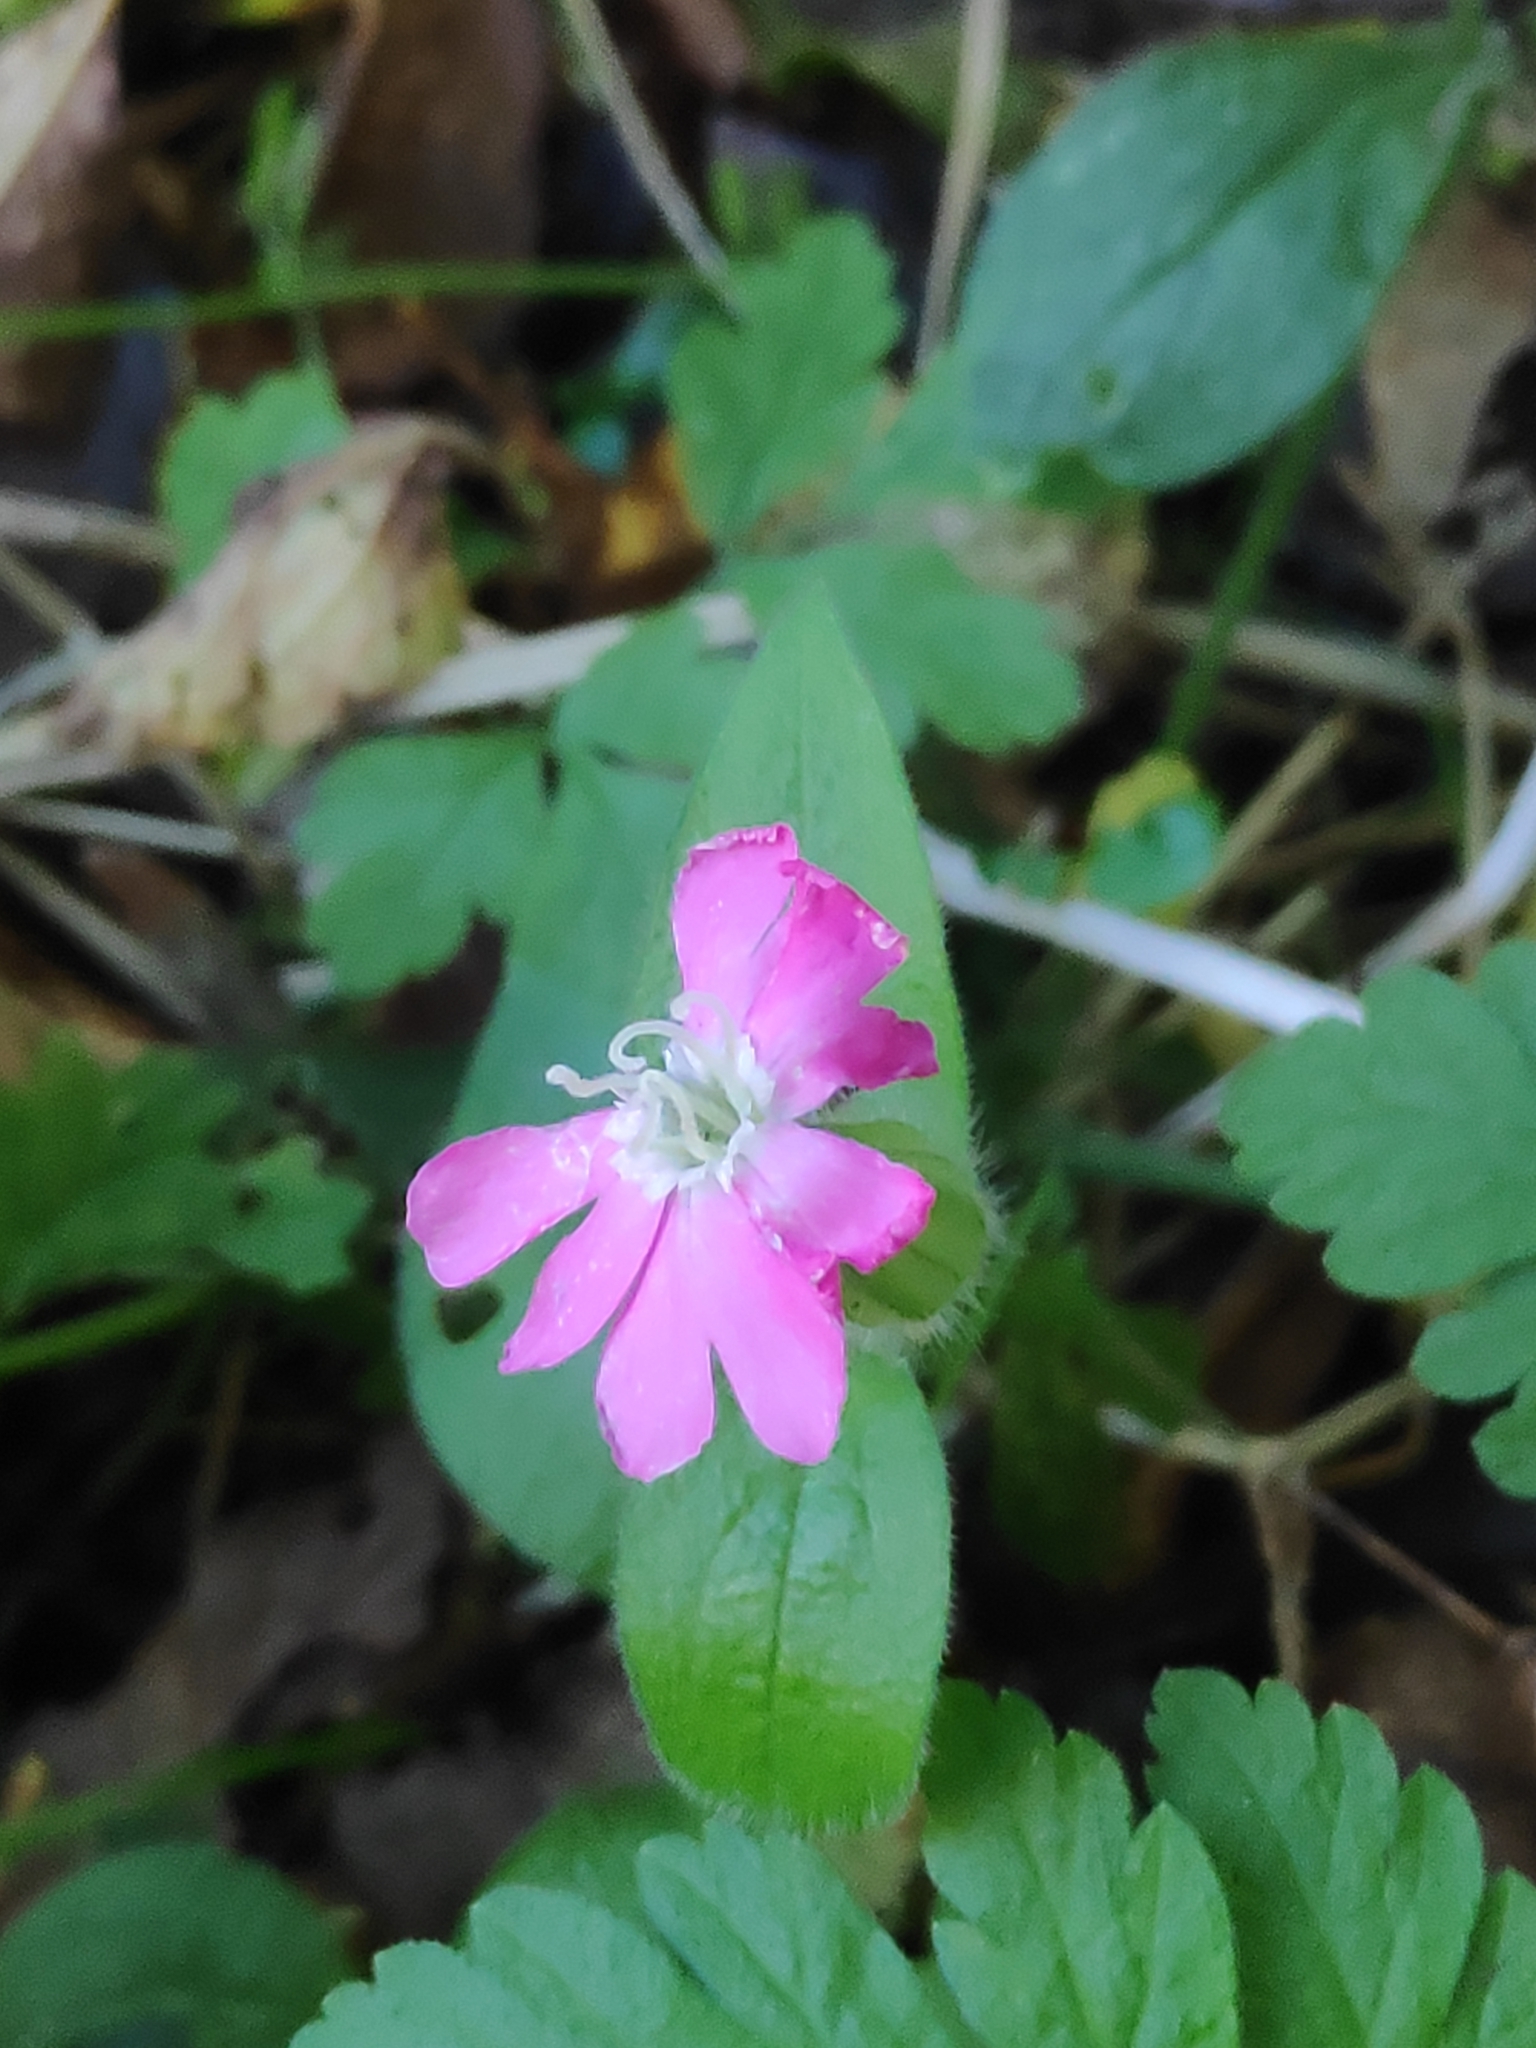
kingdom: Plantae
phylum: Tracheophyta
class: Magnoliopsida
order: Caryophyllales
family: Caryophyllaceae
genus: Silene
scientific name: Silene dioica
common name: Red campion
